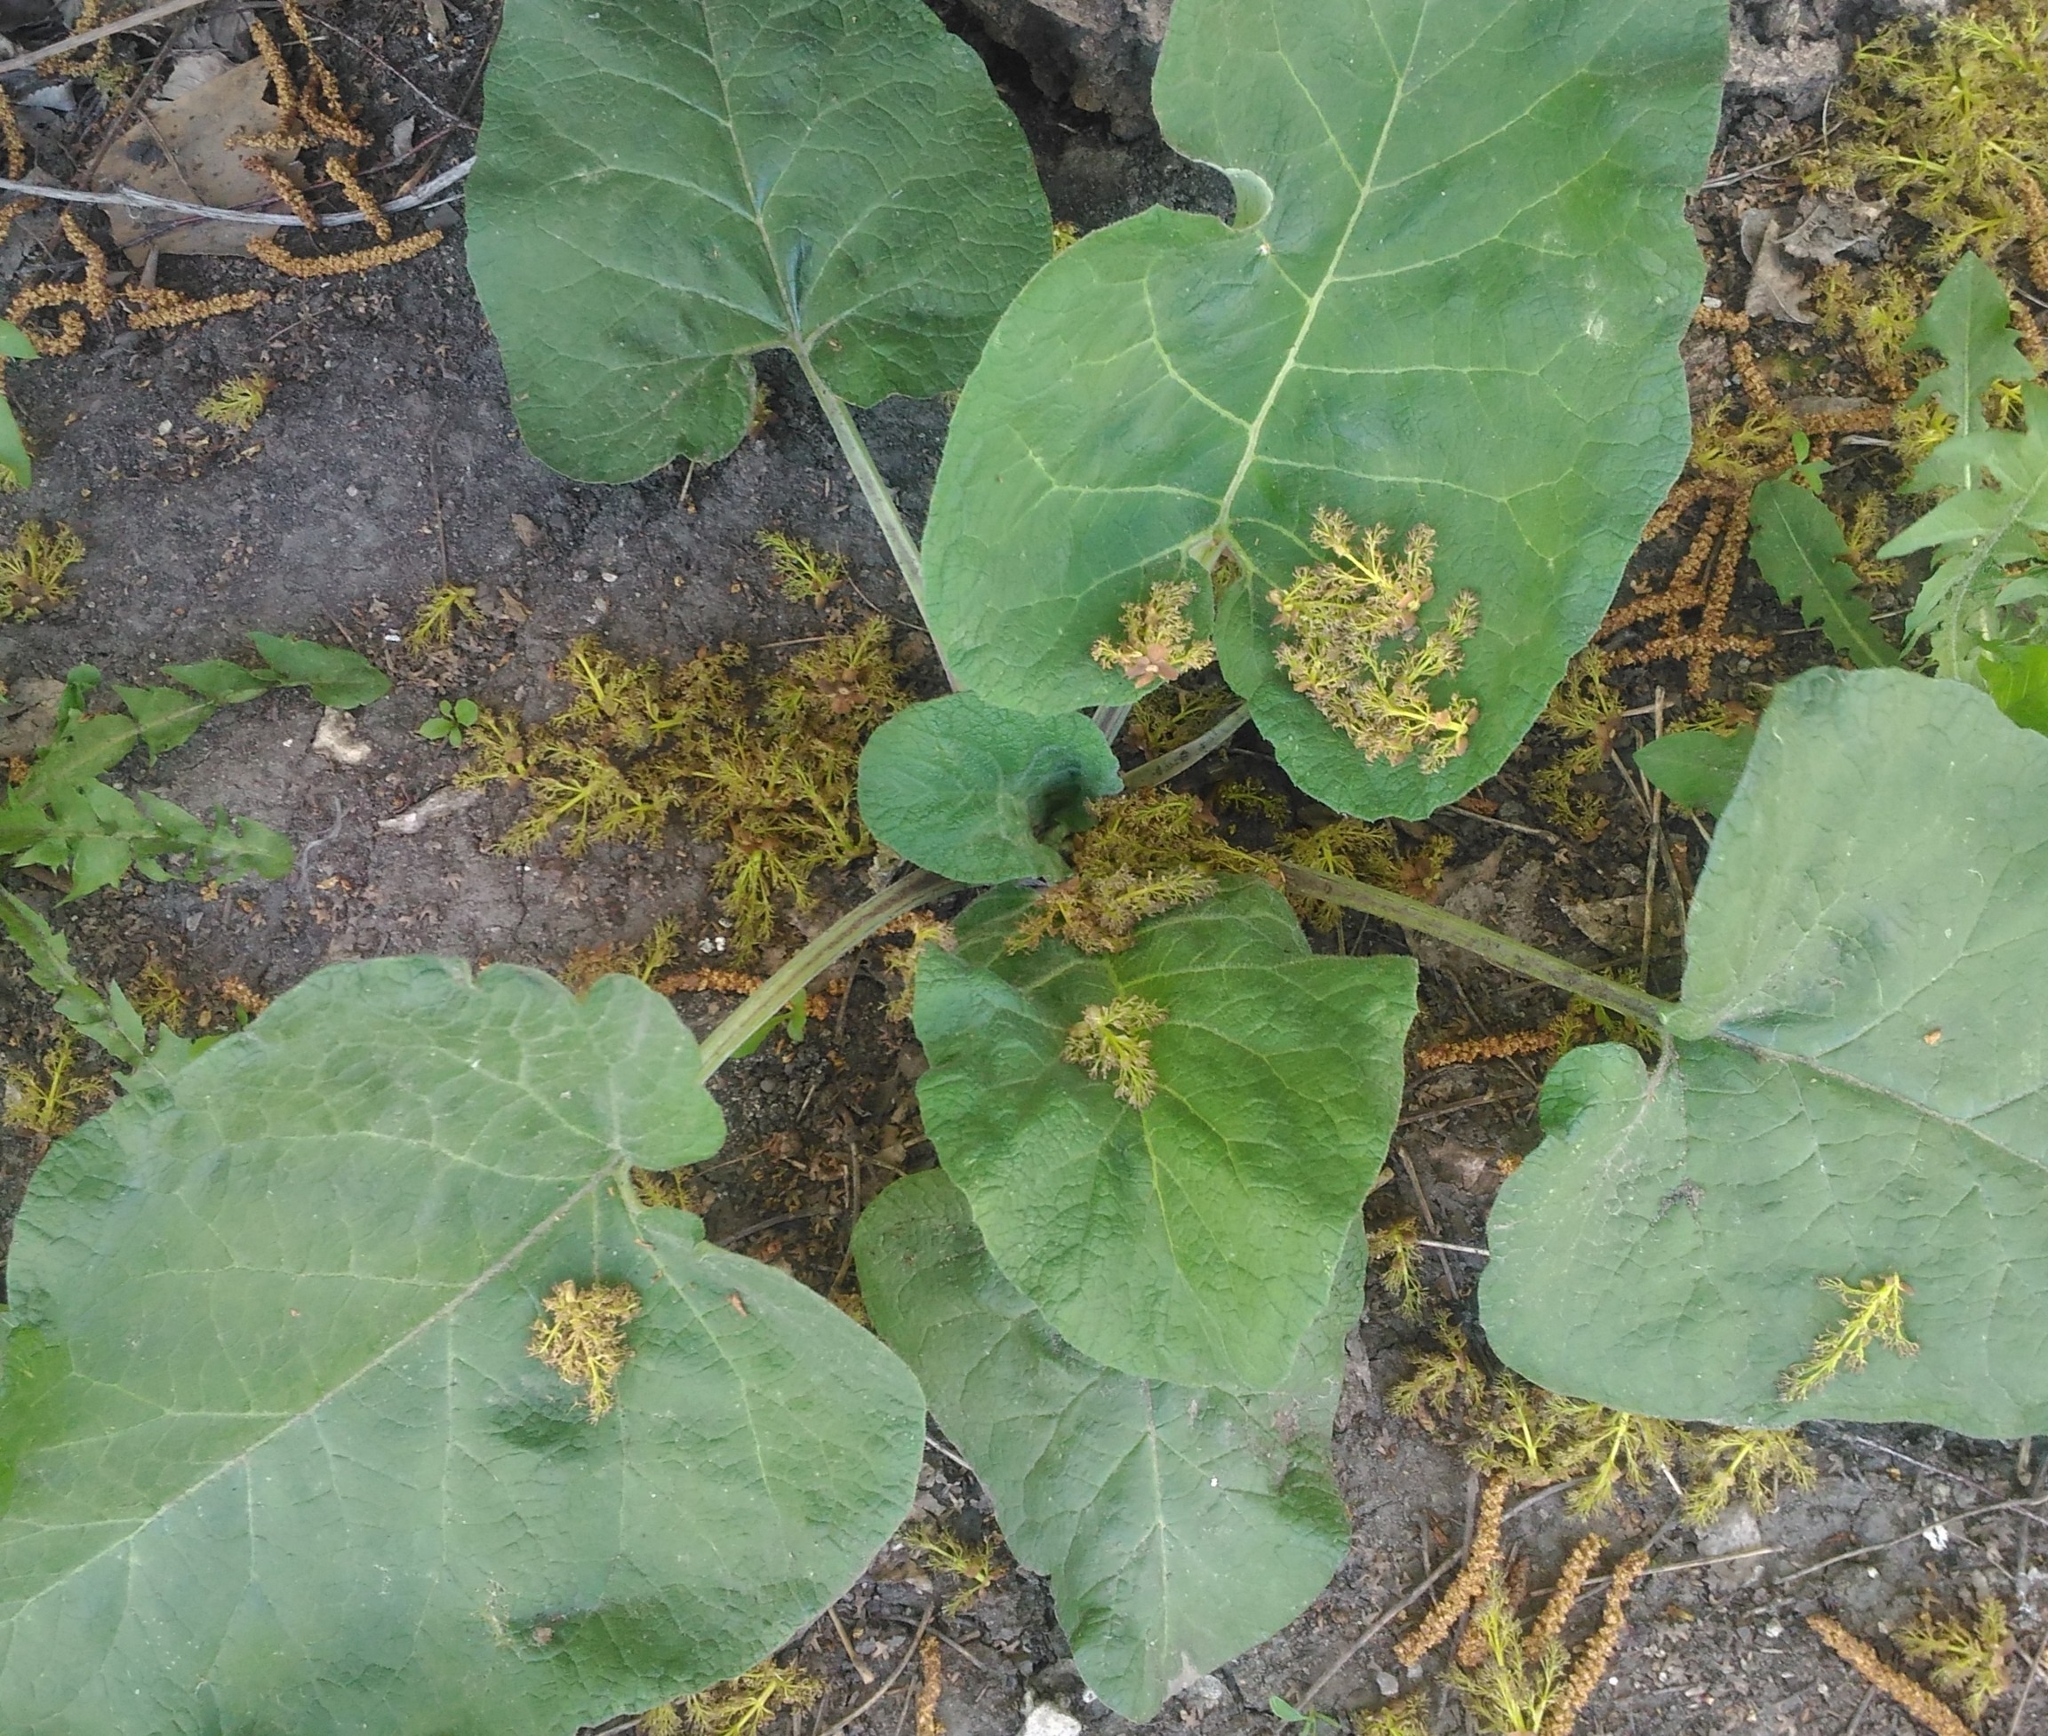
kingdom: Plantae
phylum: Tracheophyta
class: Magnoliopsida
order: Asterales
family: Asteraceae
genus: Arctium
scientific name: Arctium
